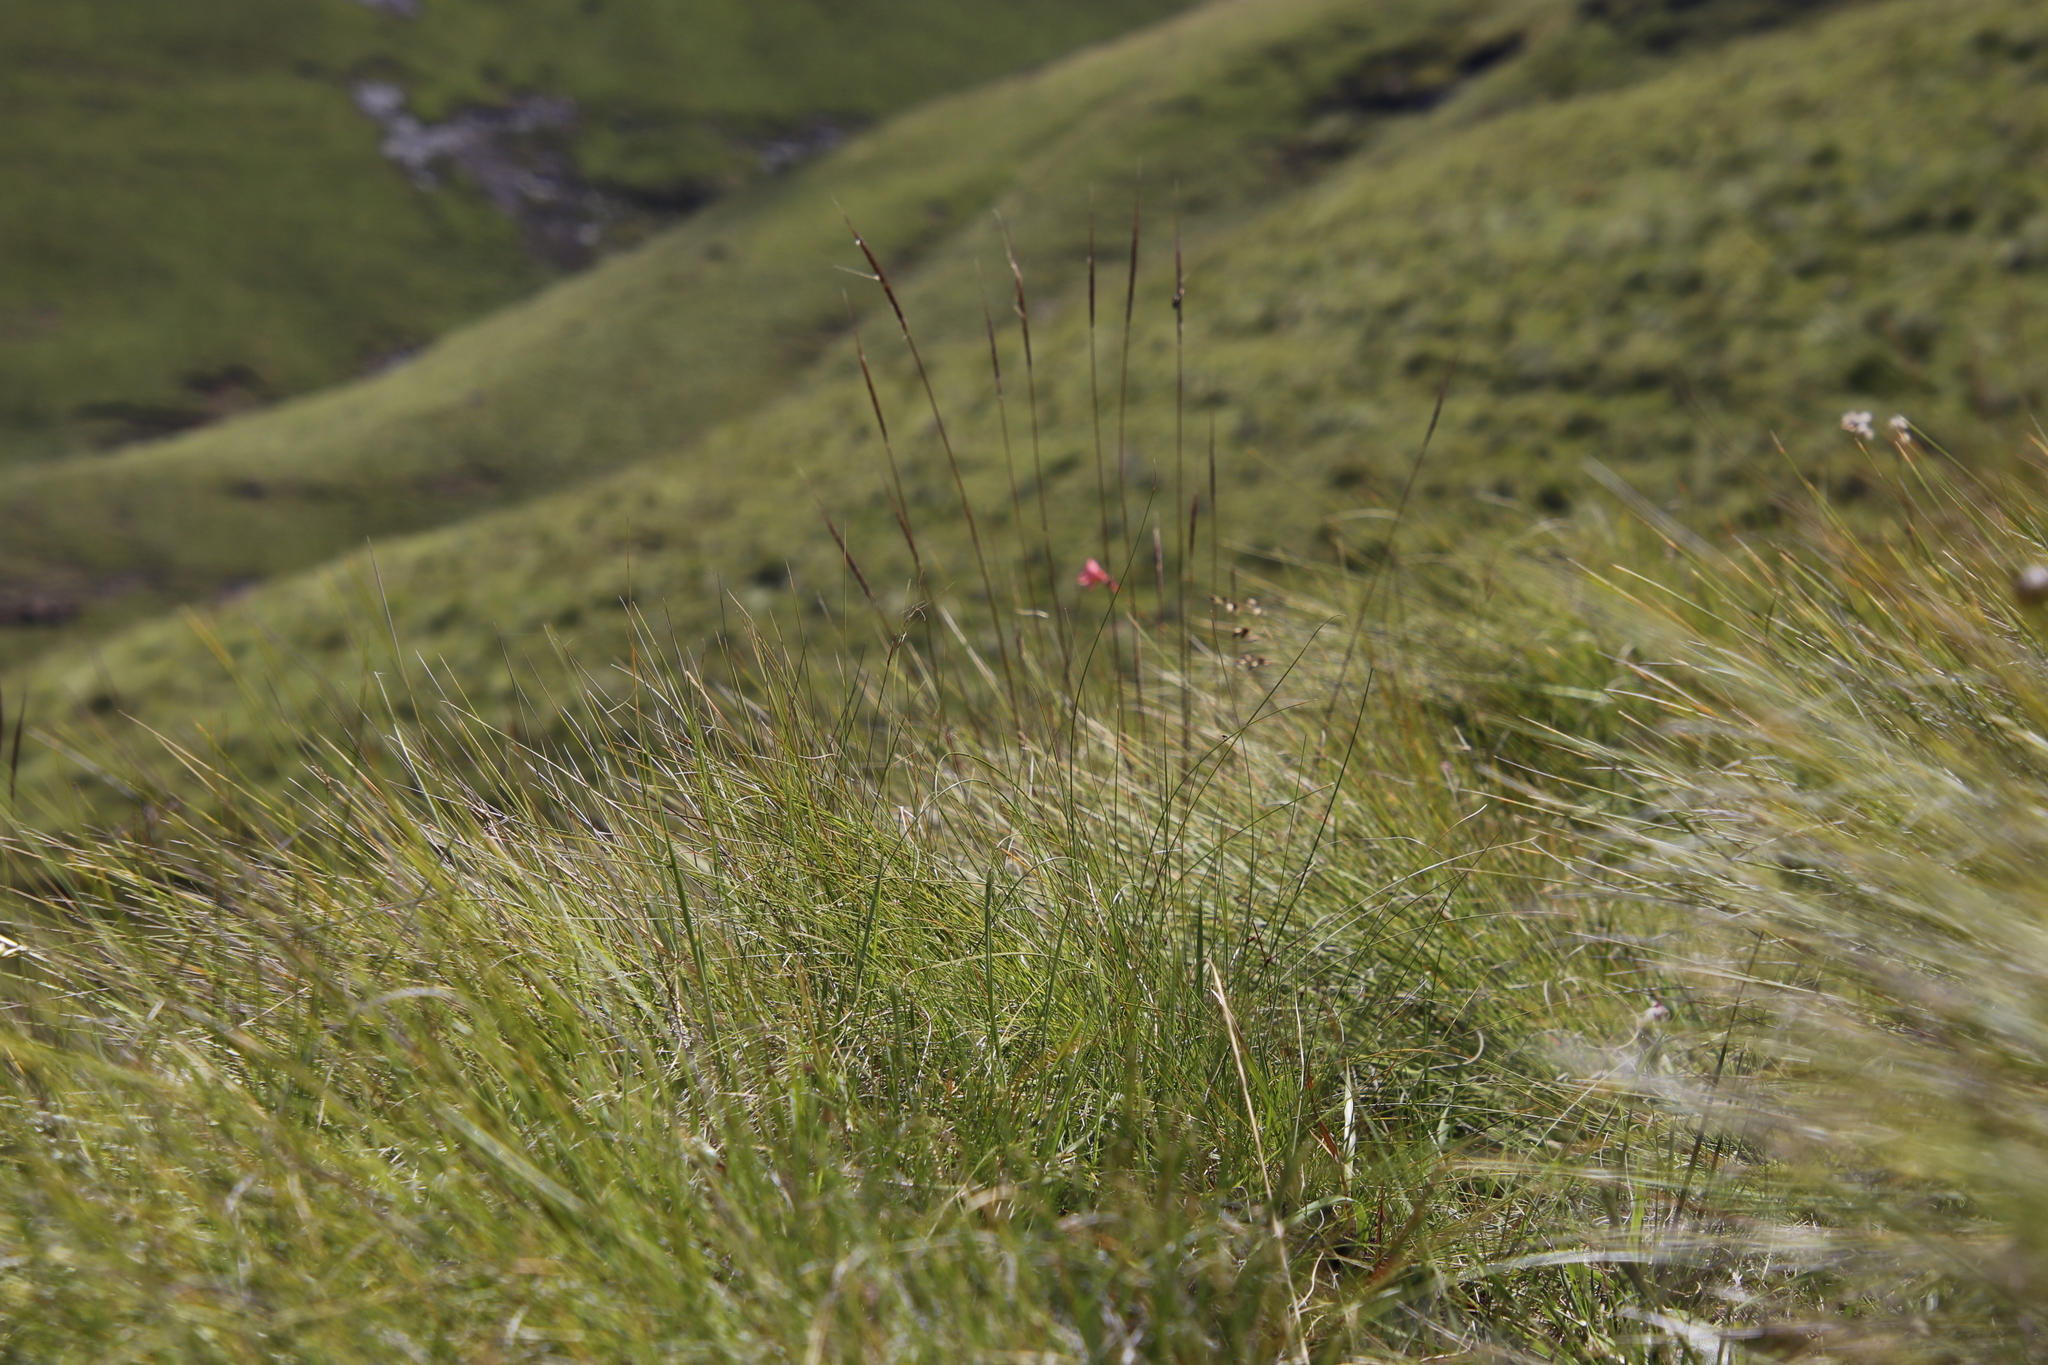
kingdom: Plantae
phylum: Tracheophyta
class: Liliopsida
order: Poales
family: Poaceae
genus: Trachypogon
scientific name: Trachypogon spicatus
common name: Crinkle-awn
